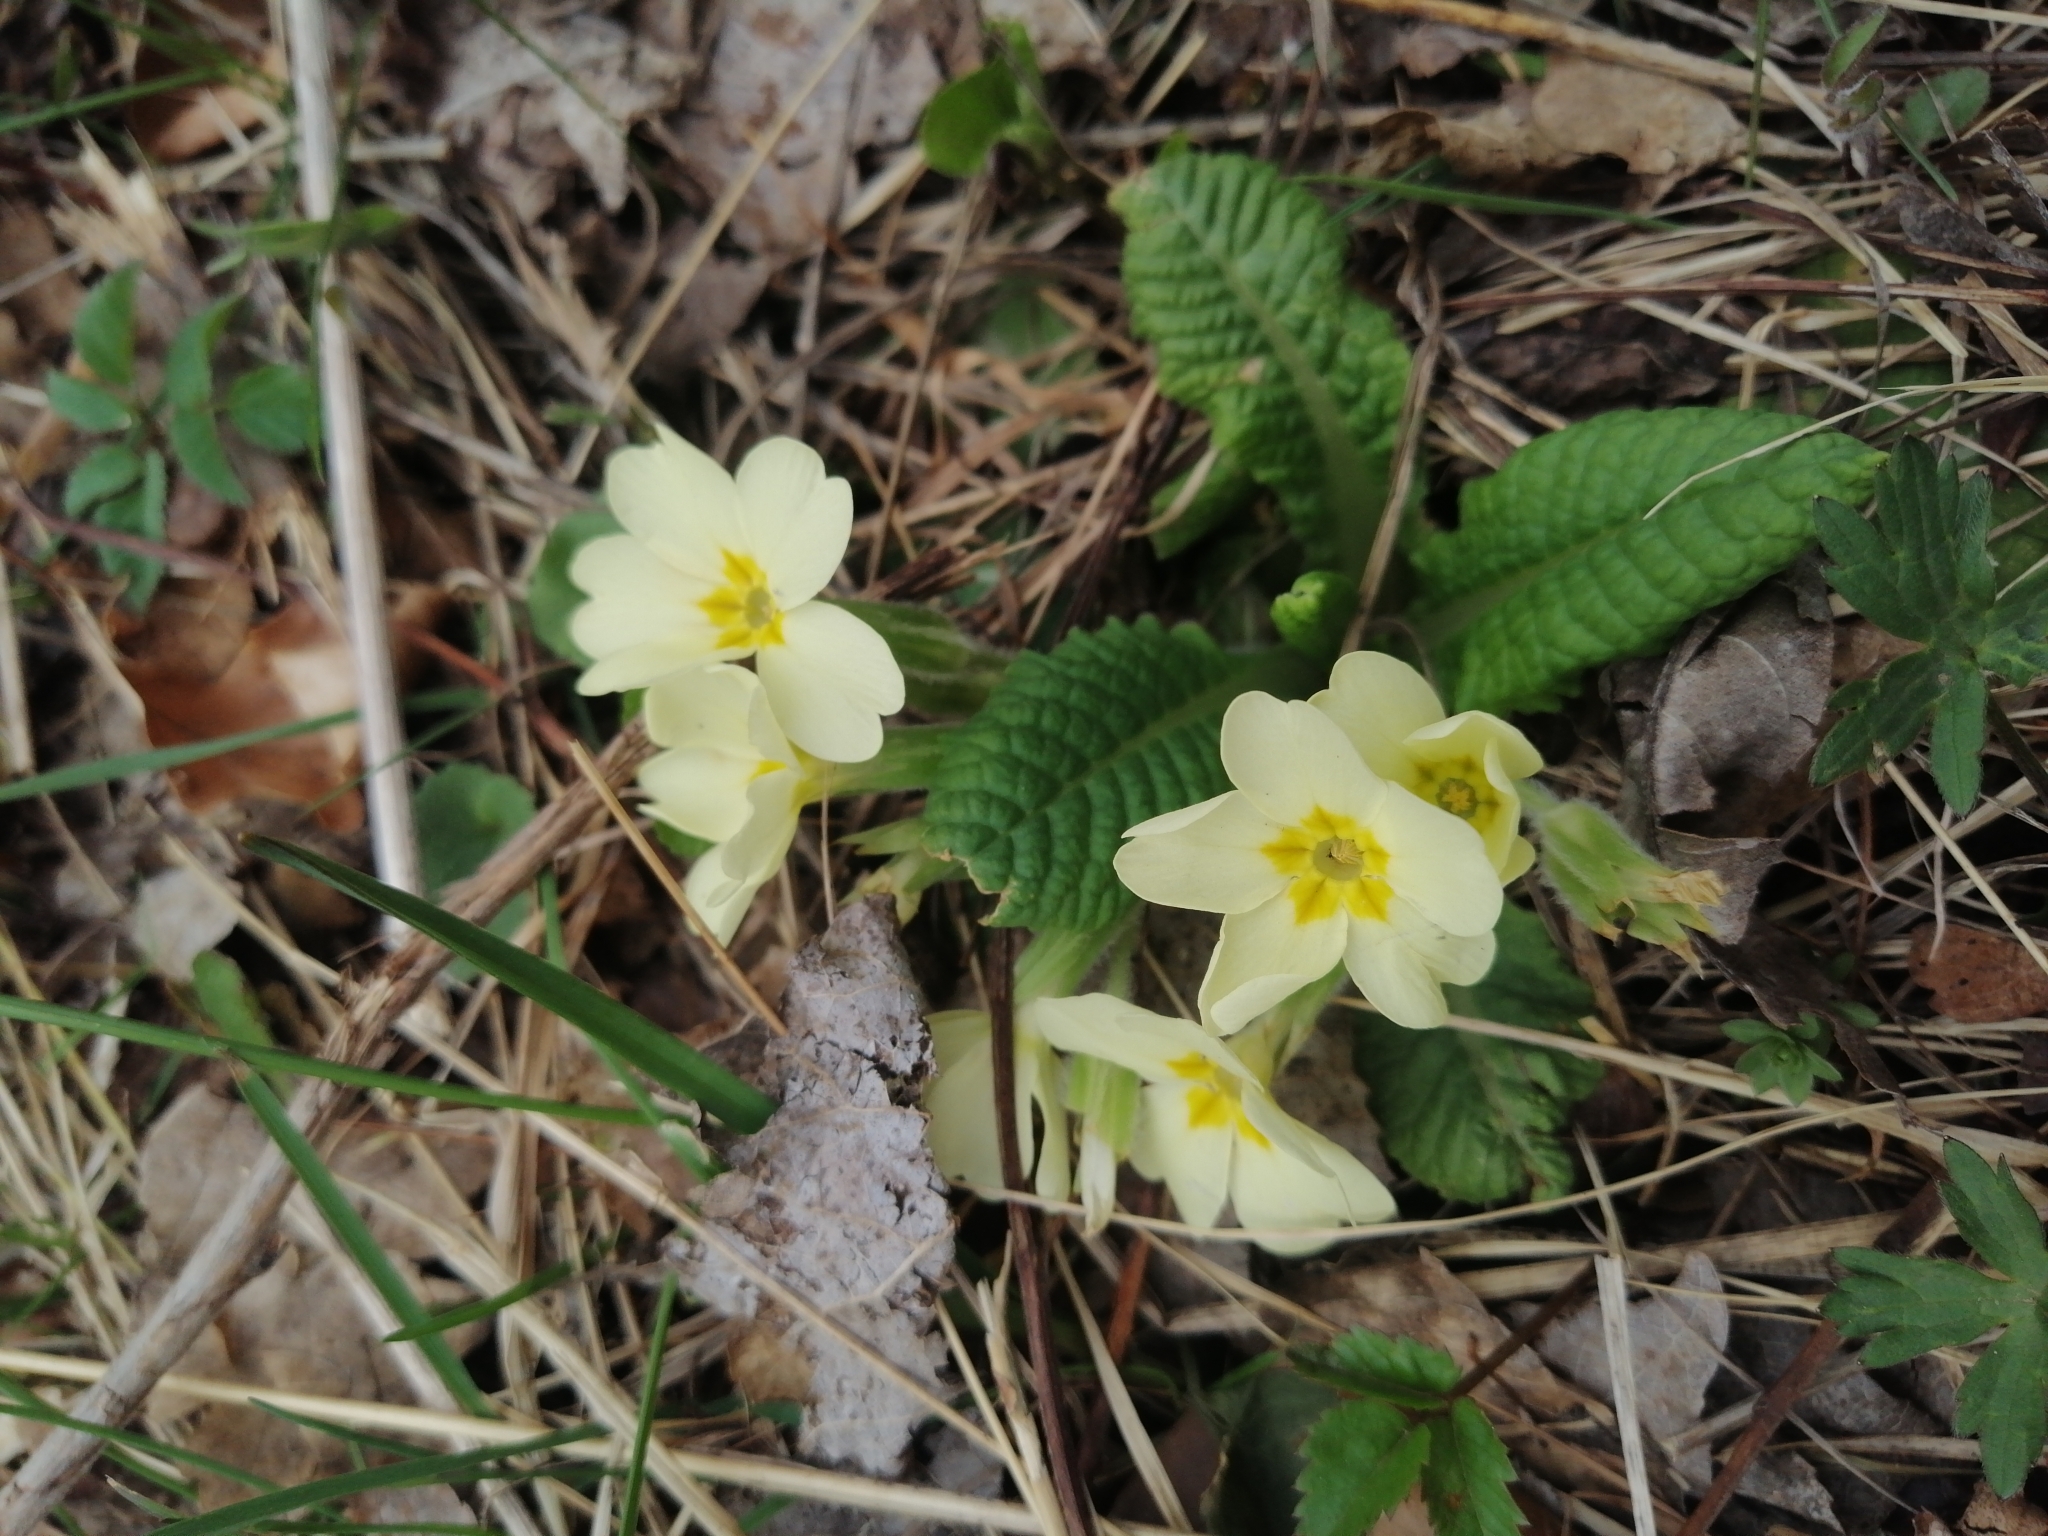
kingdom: Plantae
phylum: Tracheophyta
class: Magnoliopsida
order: Ericales
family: Primulaceae
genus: Primula
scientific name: Primula vulgaris
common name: Primrose
